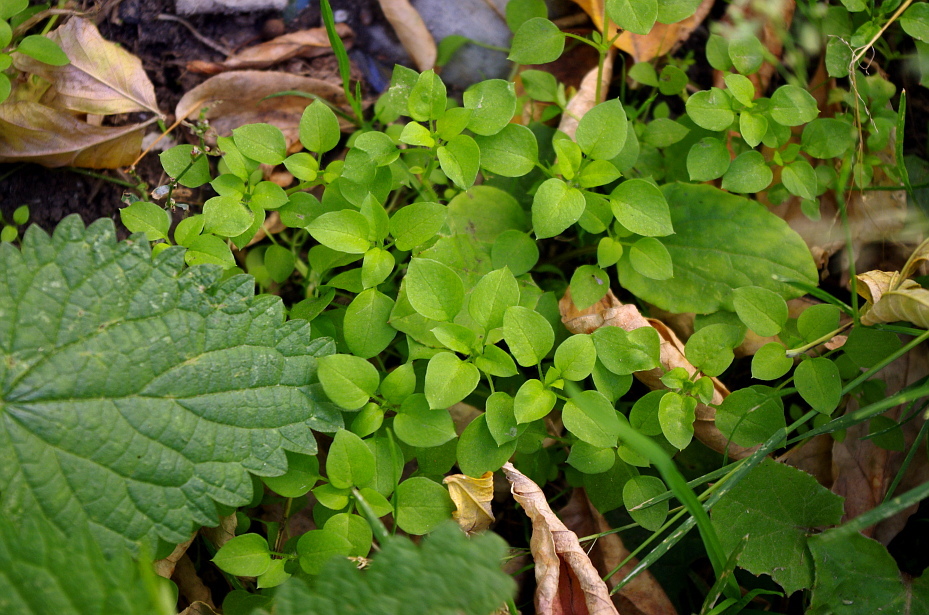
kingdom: Plantae
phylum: Tracheophyta
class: Magnoliopsida
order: Caryophyllales
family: Caryophyllaceae
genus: Stellaria
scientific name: Stellaria media
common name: Common chickweed
